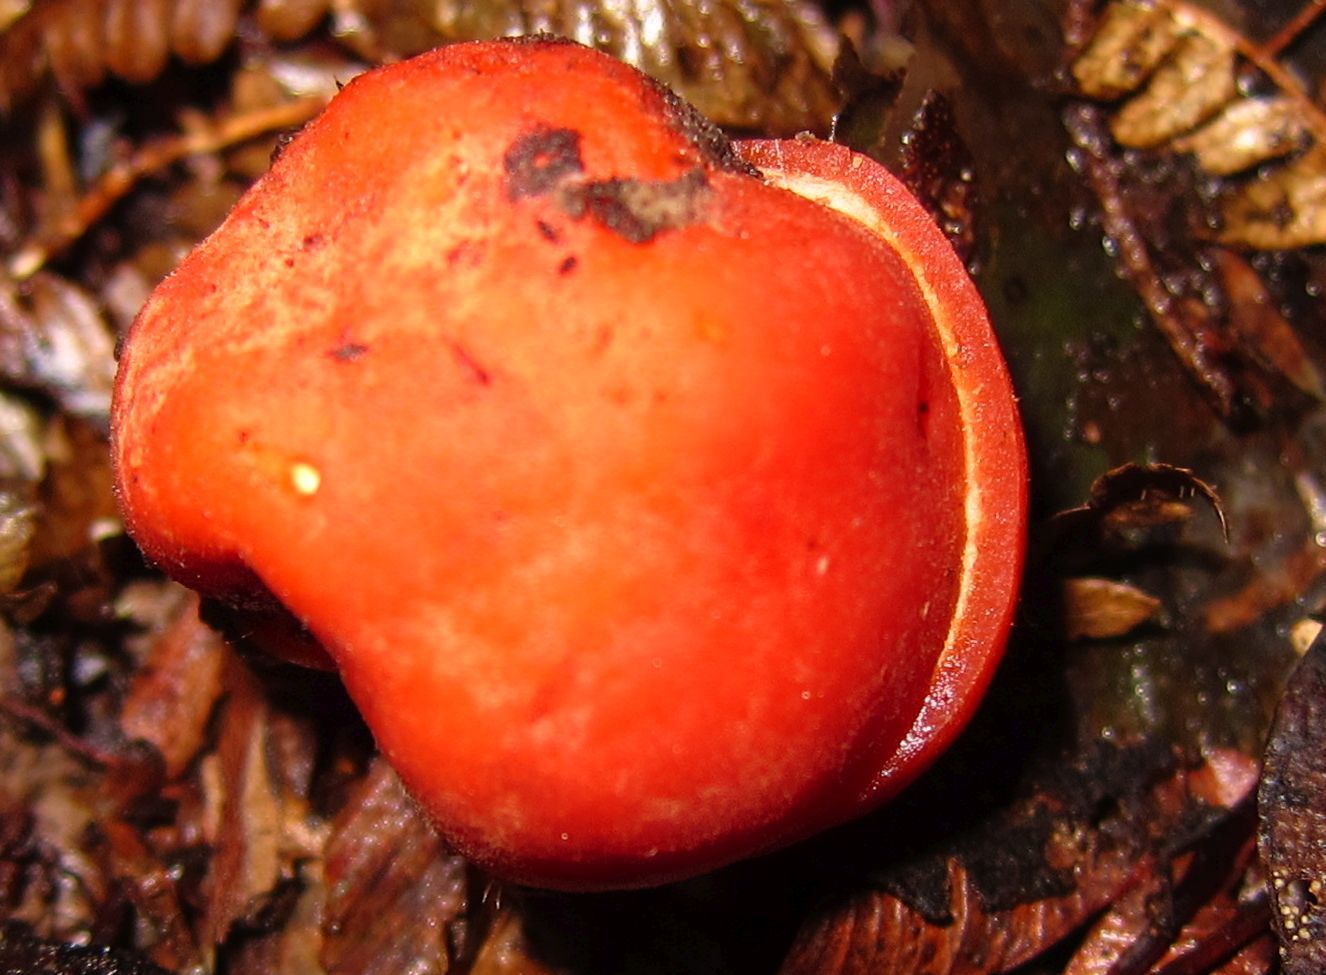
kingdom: Fungi
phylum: Ascomycota
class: Pezizomycetes
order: Pezizales
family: Pyronemataceae
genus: Paurocotylis
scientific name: Paurocotylis pila
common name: Scarlet berry truffle
